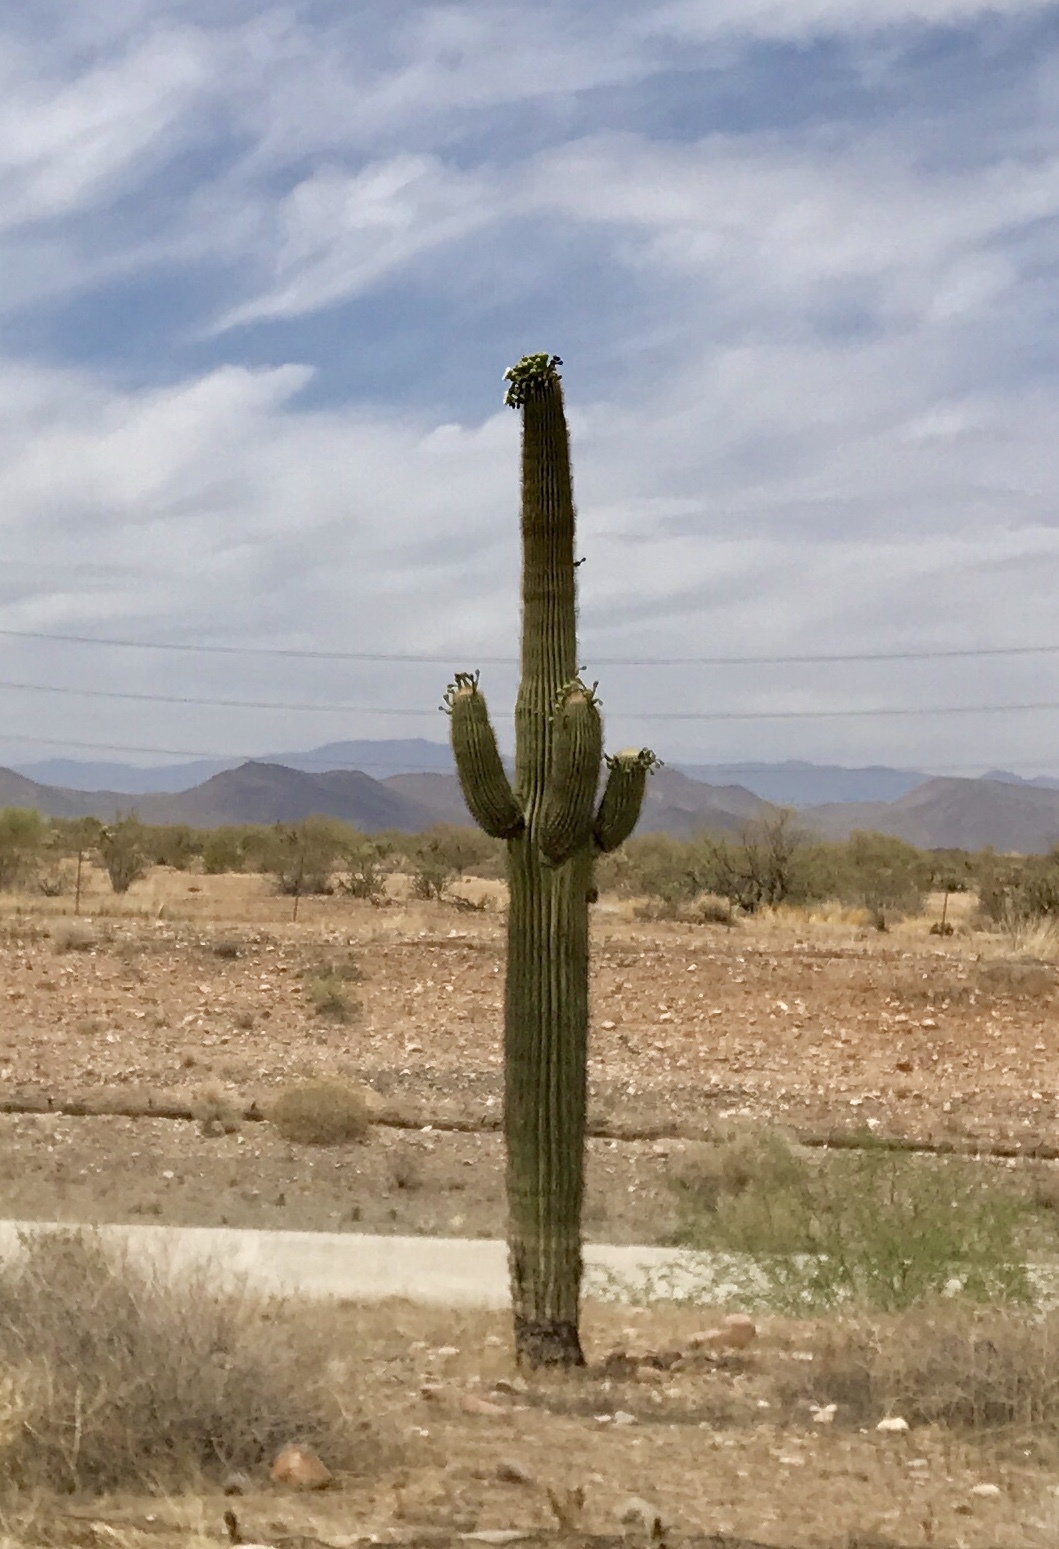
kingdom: Plantae
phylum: Tracheophyta
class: Magnoliopsida
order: Caryophyllales
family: Cactaceae
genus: Carnegiea
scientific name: Carnegiea gigantea
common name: Saguaro
